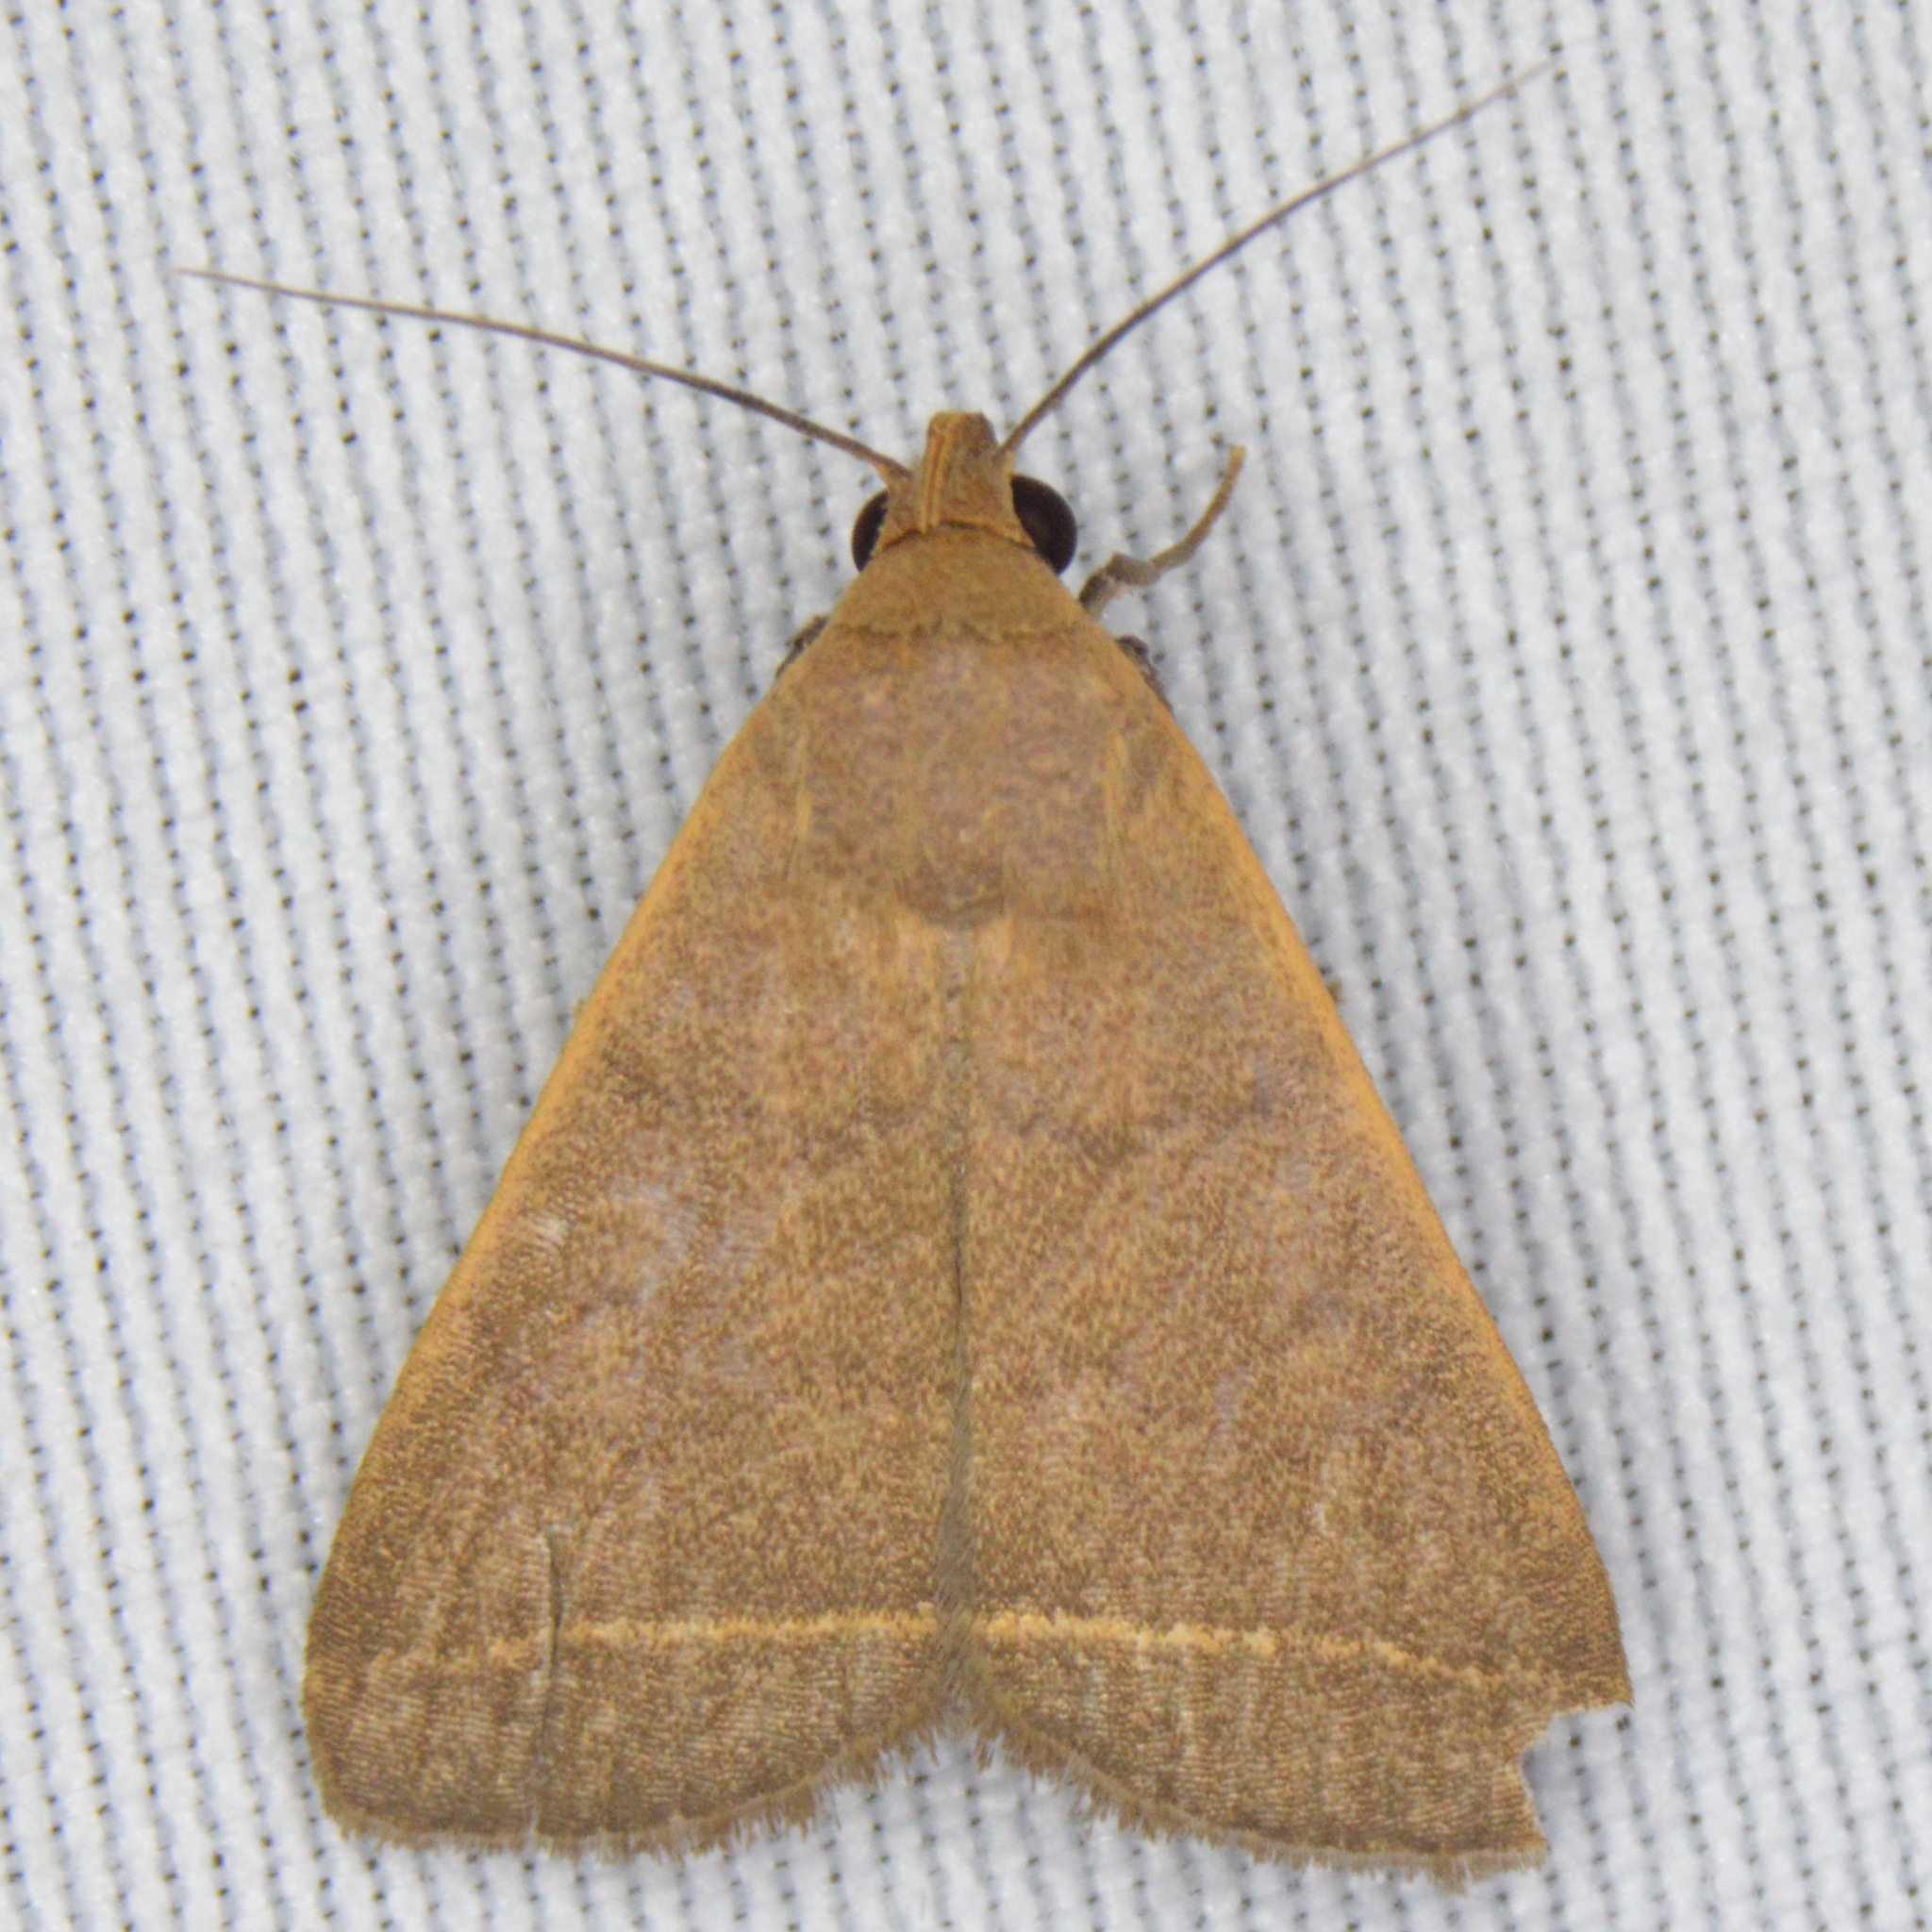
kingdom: Animalia
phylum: Arthropoda
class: Insecta
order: Lepidoptera
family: Erebidae
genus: Simplicia
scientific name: Simplicia cornicalis
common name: Tiki hut litter moth
